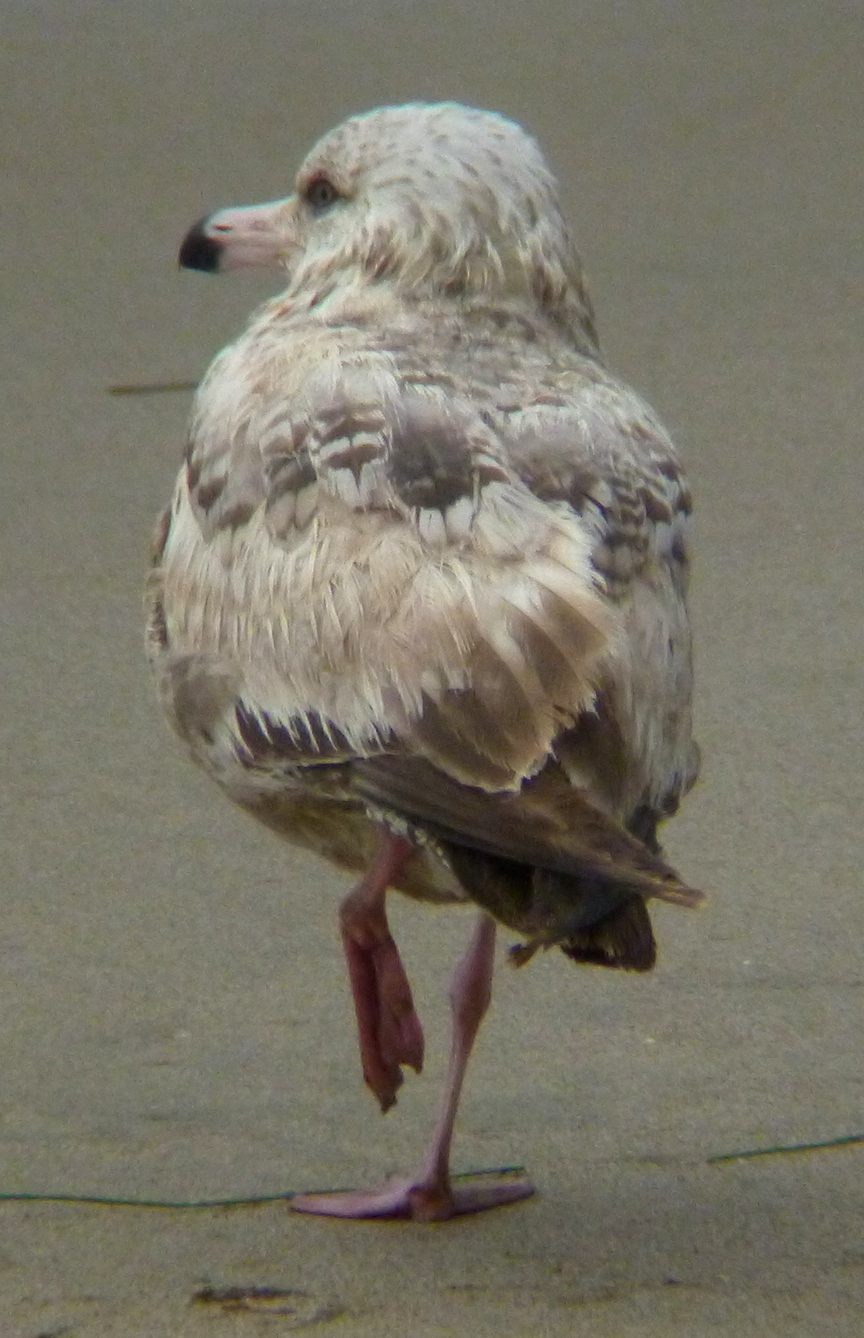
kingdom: Animalia
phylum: Chordata
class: Aves
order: Charadriiformes
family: Laridae
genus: Larus
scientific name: Larus argentatus
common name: Herring gull
